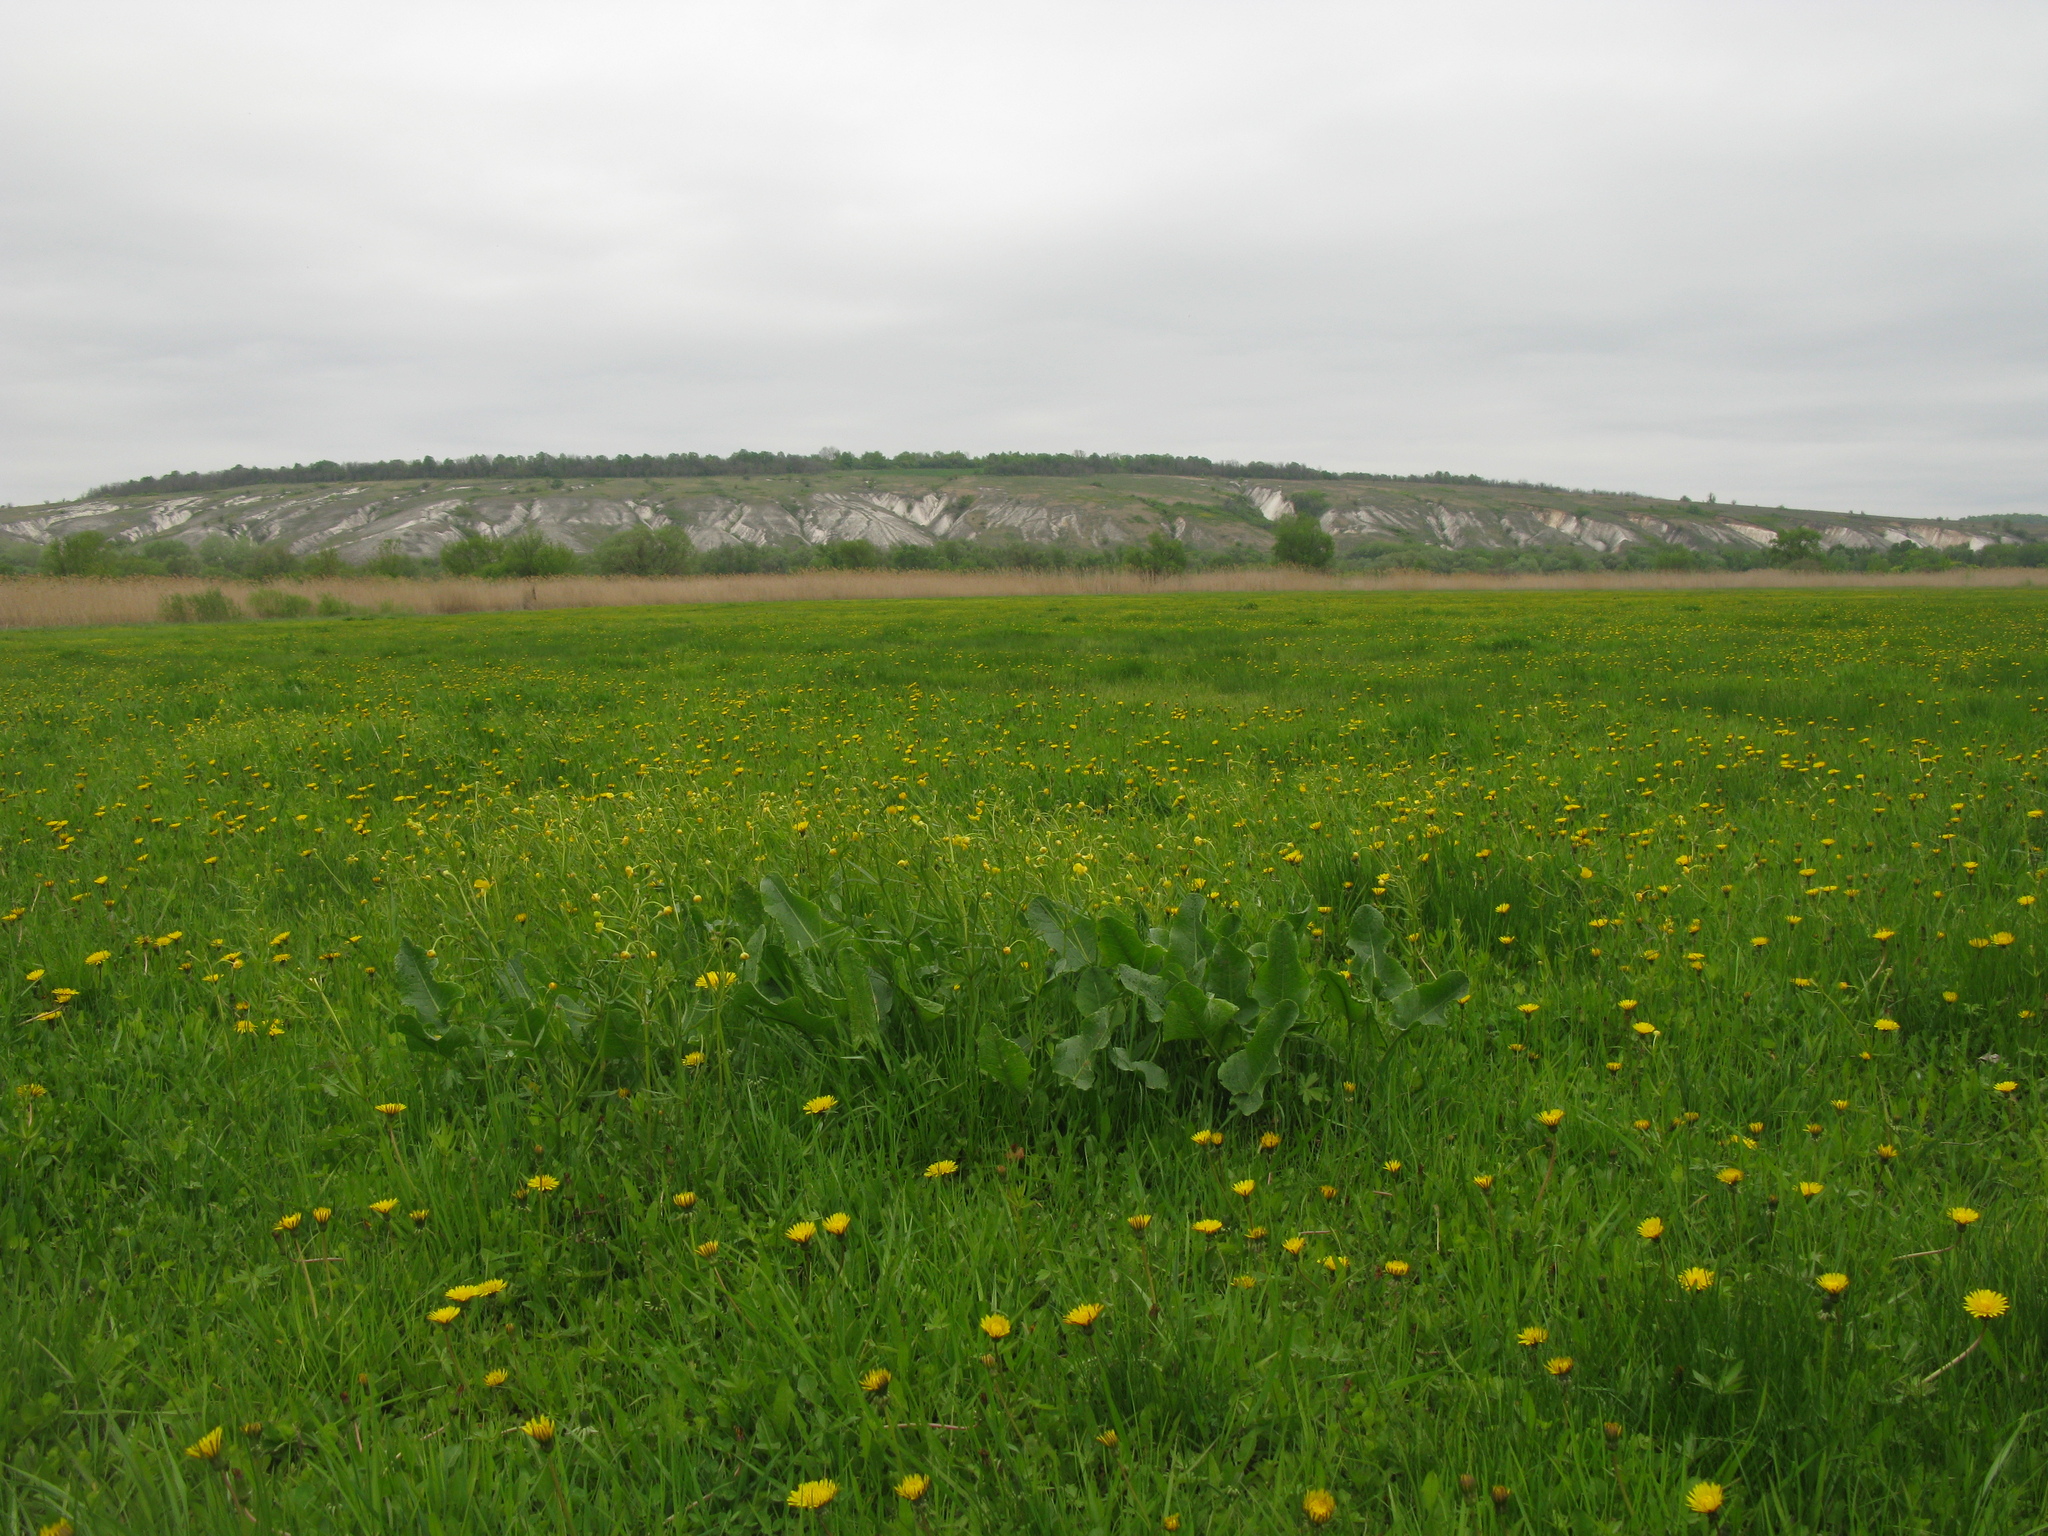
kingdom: Plantae
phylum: Tracheophyta
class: Magnoliopsida
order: Caryophyllales
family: Polygonaceae
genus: Rumex
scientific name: Rumex confertus
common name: Russian dock
